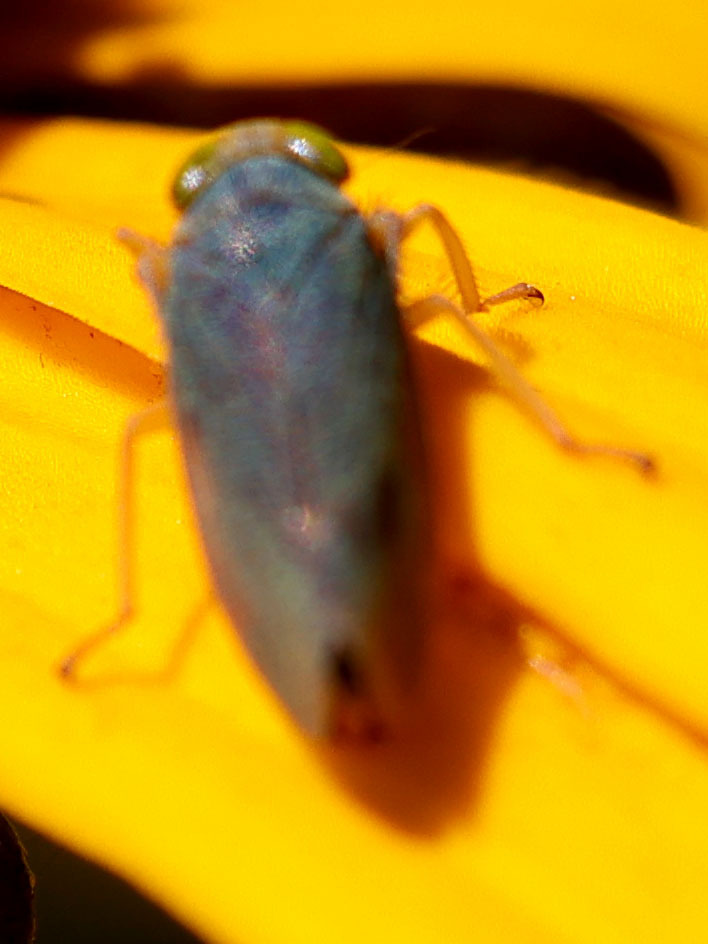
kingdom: Animalia
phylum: Arthropoda
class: Insecta
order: Hemiptera
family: Cicadellidae
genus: Jikradia
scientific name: Jikradia olitoria
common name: Coppery leafhopper
